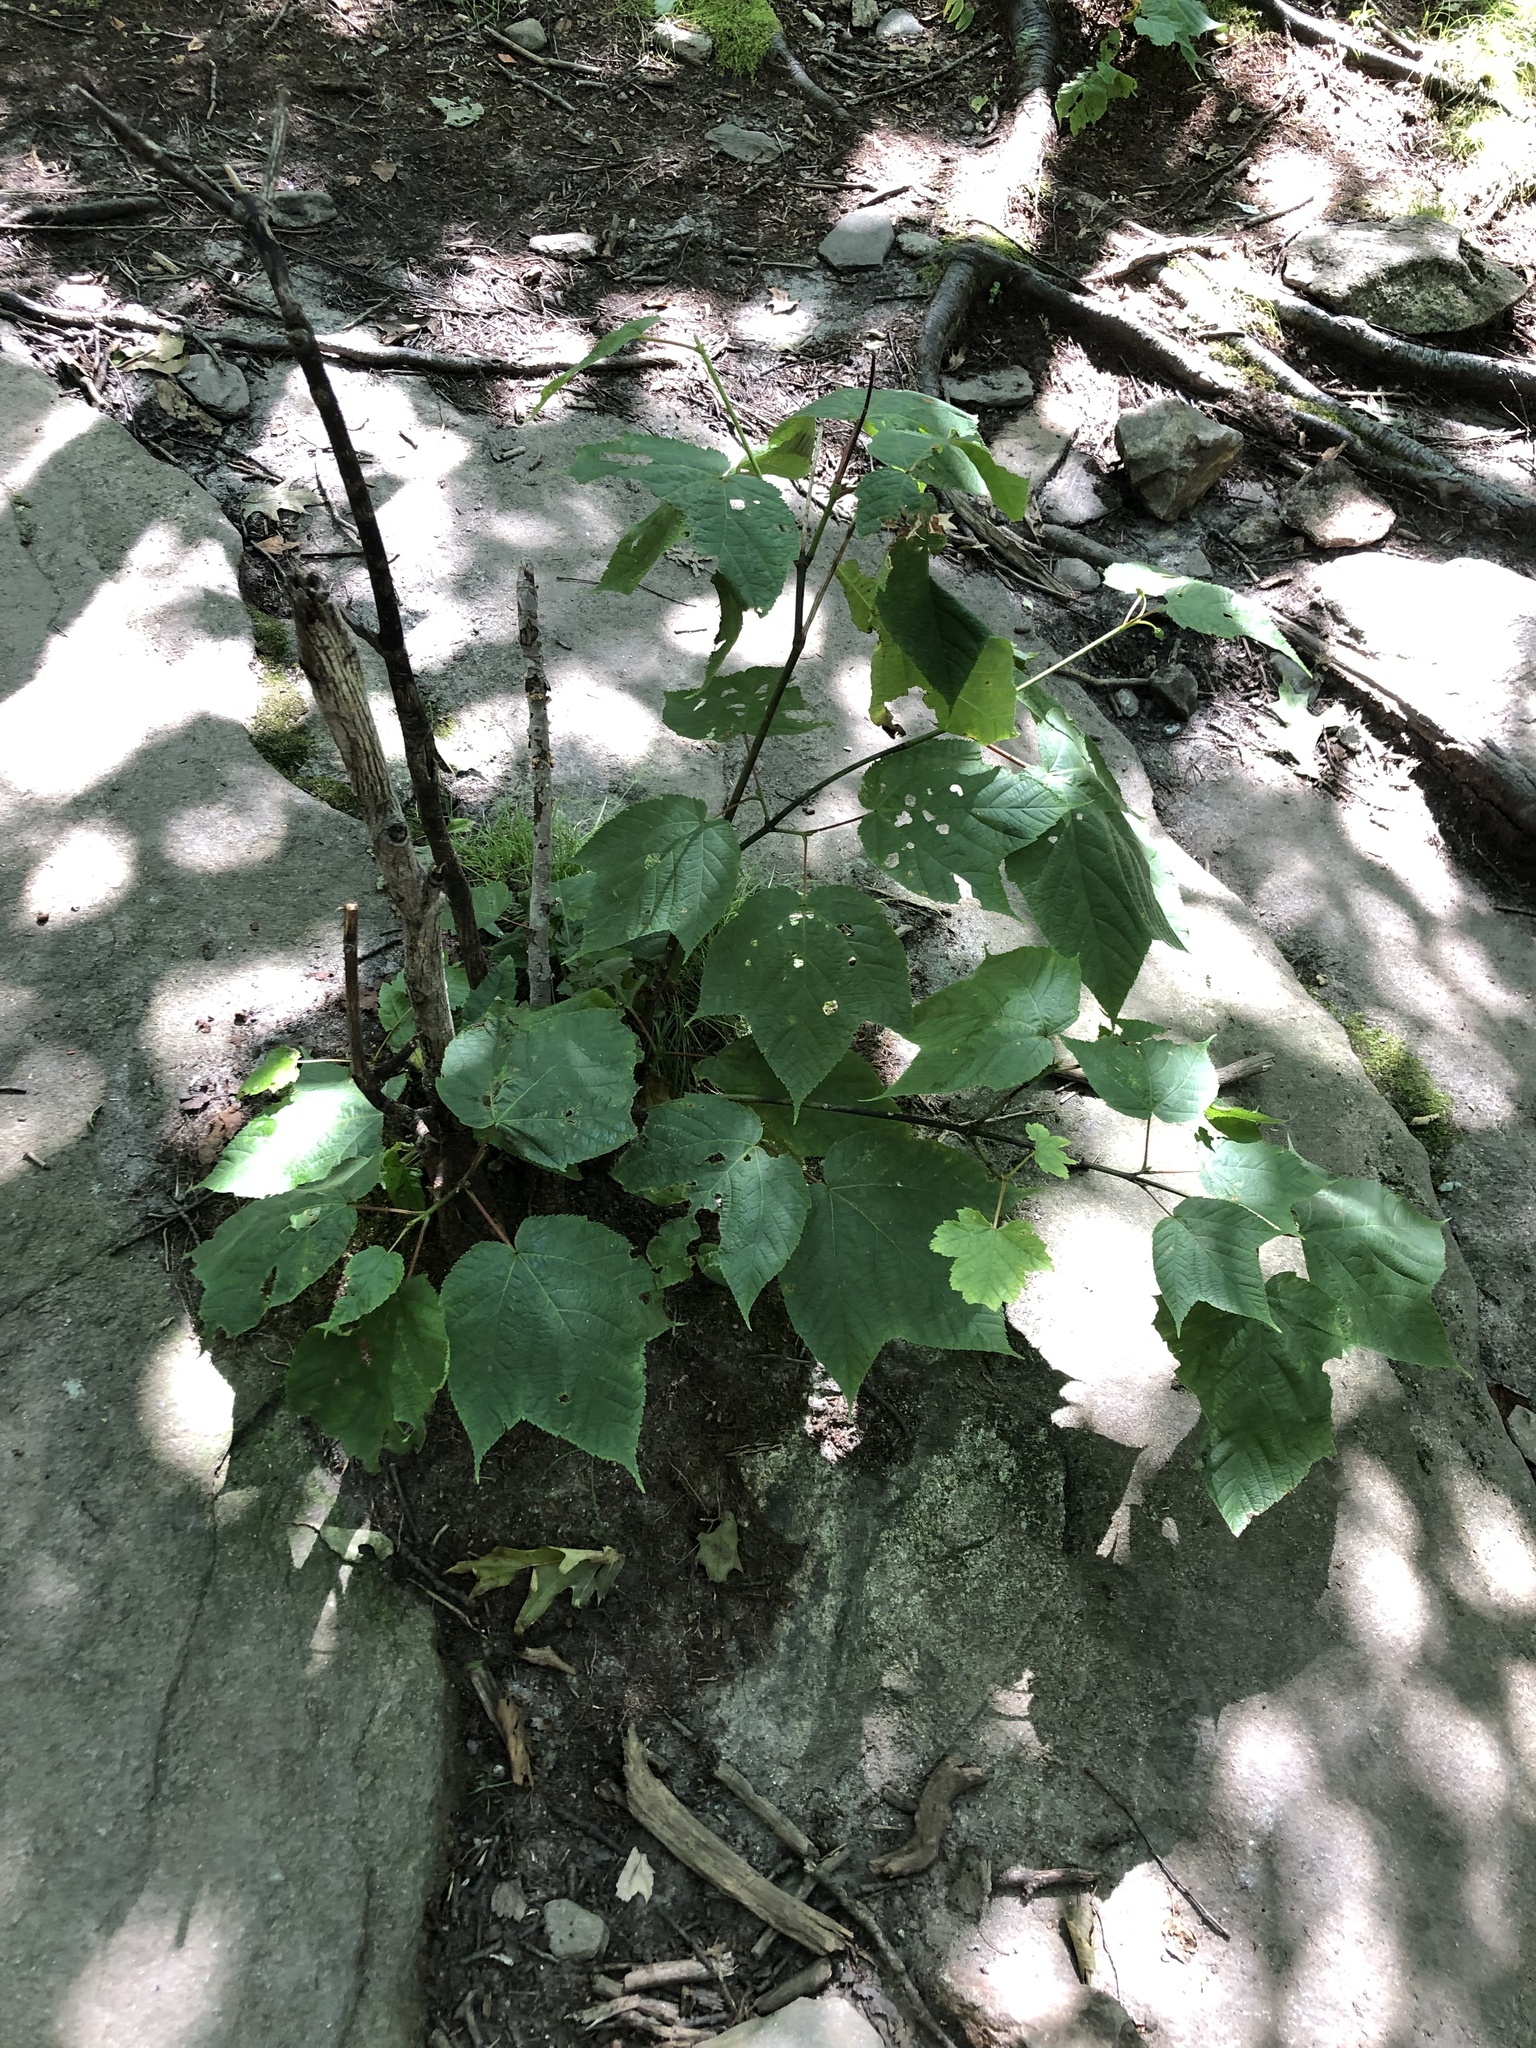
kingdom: Plantae
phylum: Tracheophyta
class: Magnoliopsida
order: Sapindales
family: Sapindaceae
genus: Acer
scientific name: Acer pensylvanicum
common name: Moosewood
